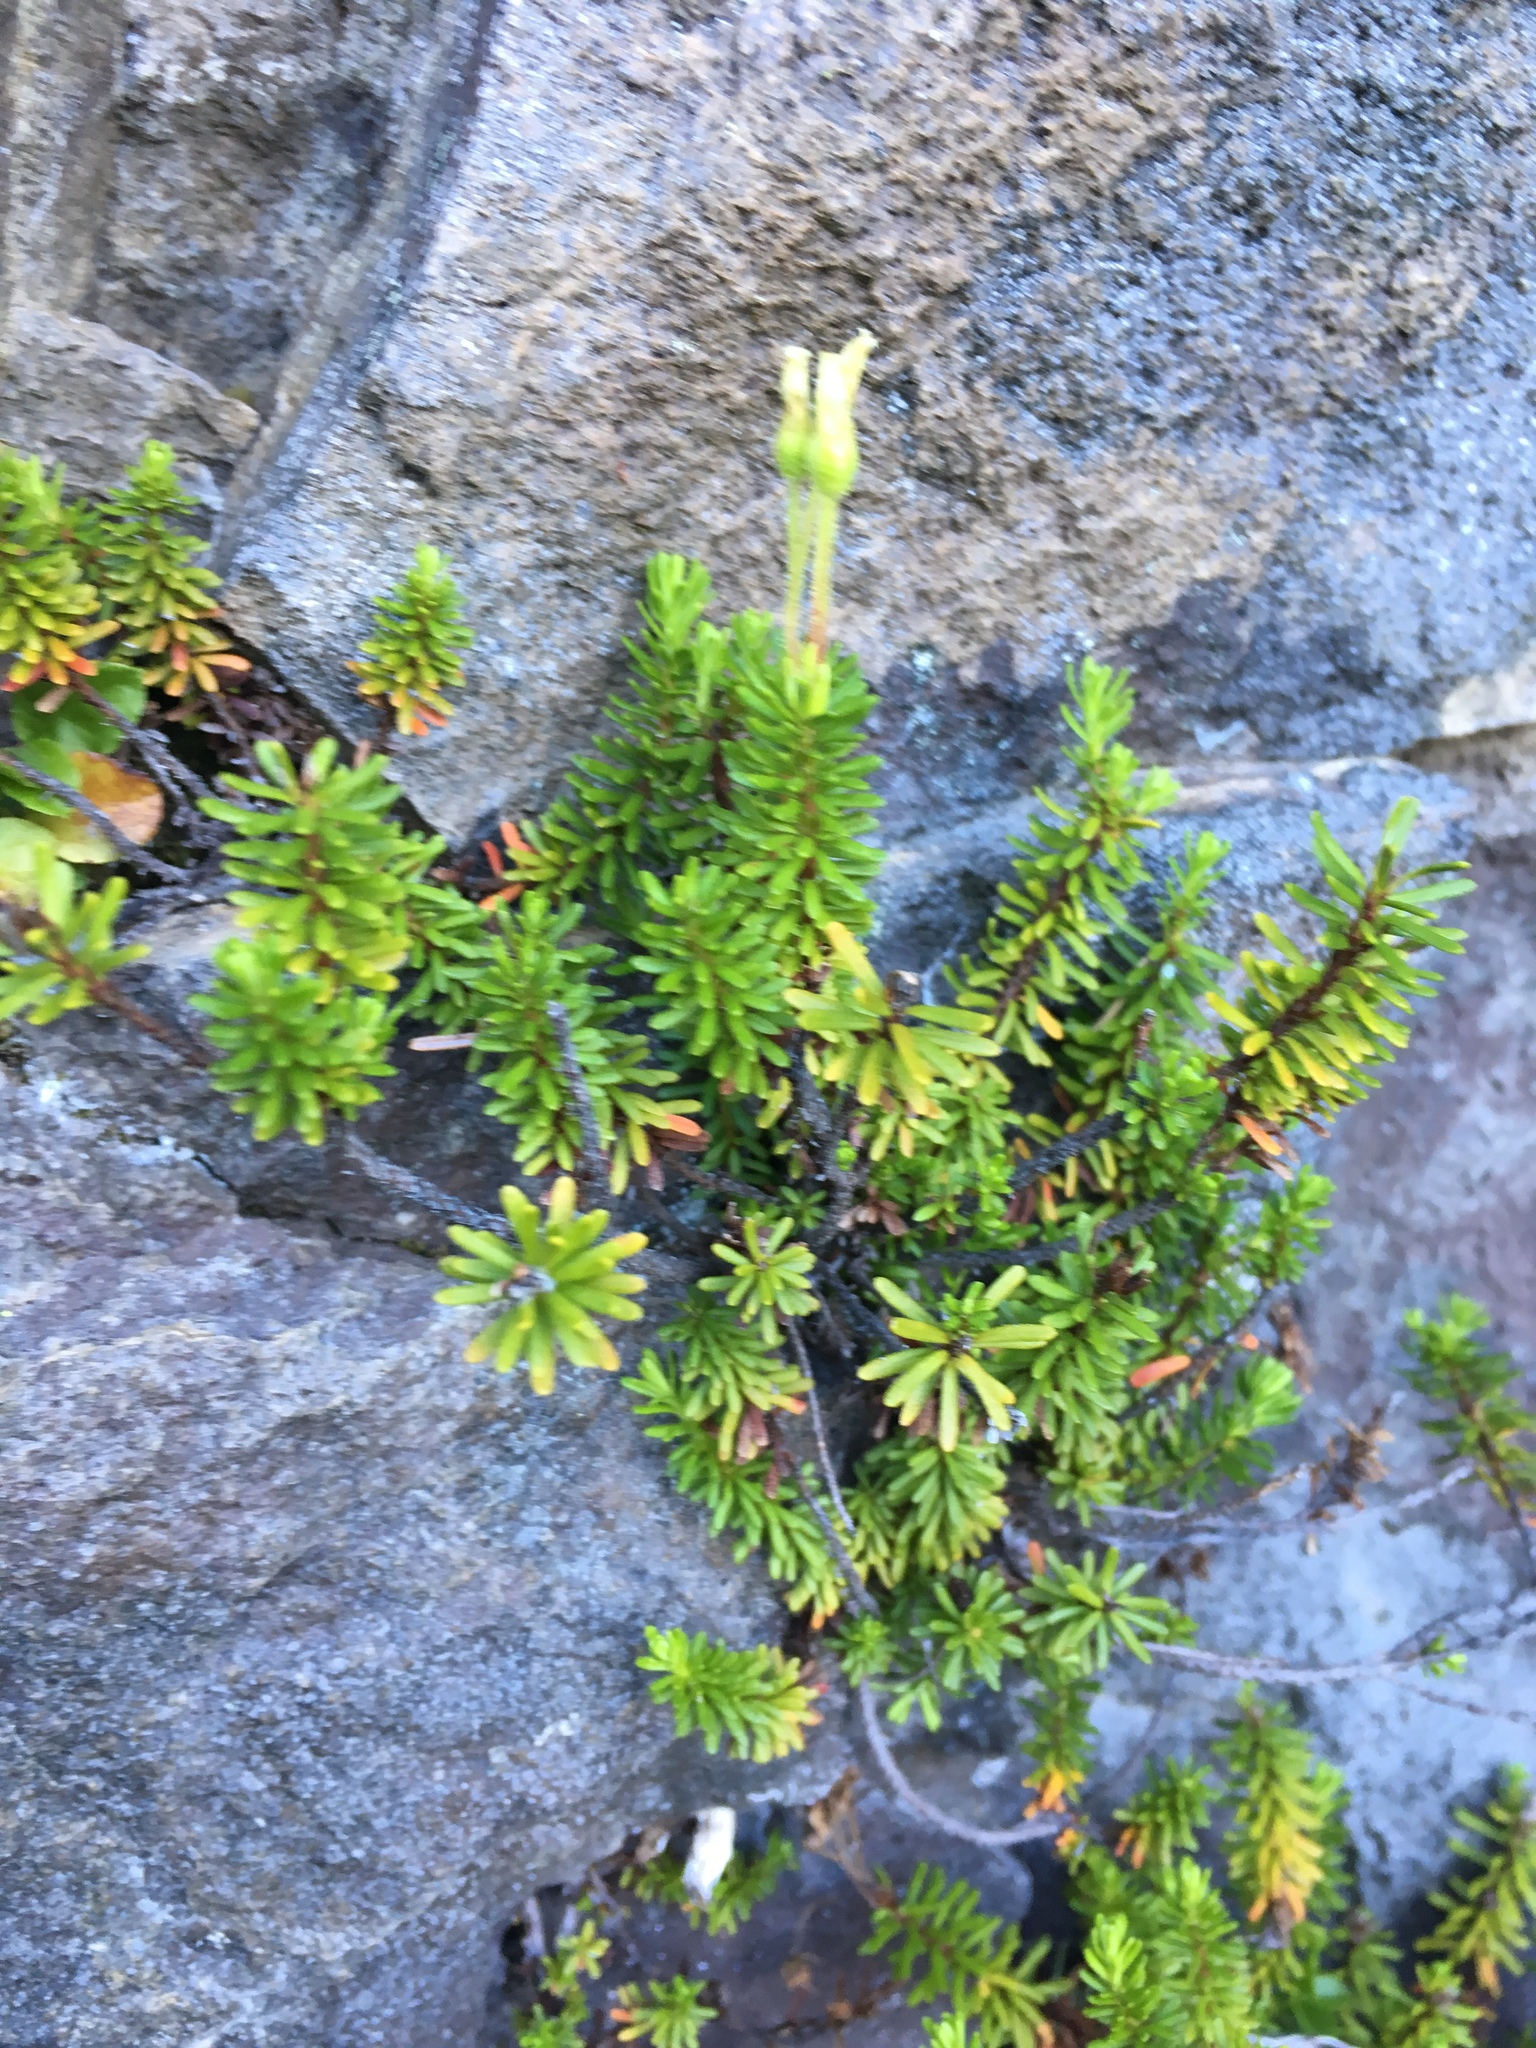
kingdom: Plantae
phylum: Tracheophyta
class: Magnoliopsida
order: Ericales
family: Ericaceae
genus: Phyllodoce
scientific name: Phyllodoce glanduliflora
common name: Cream mountain heather
